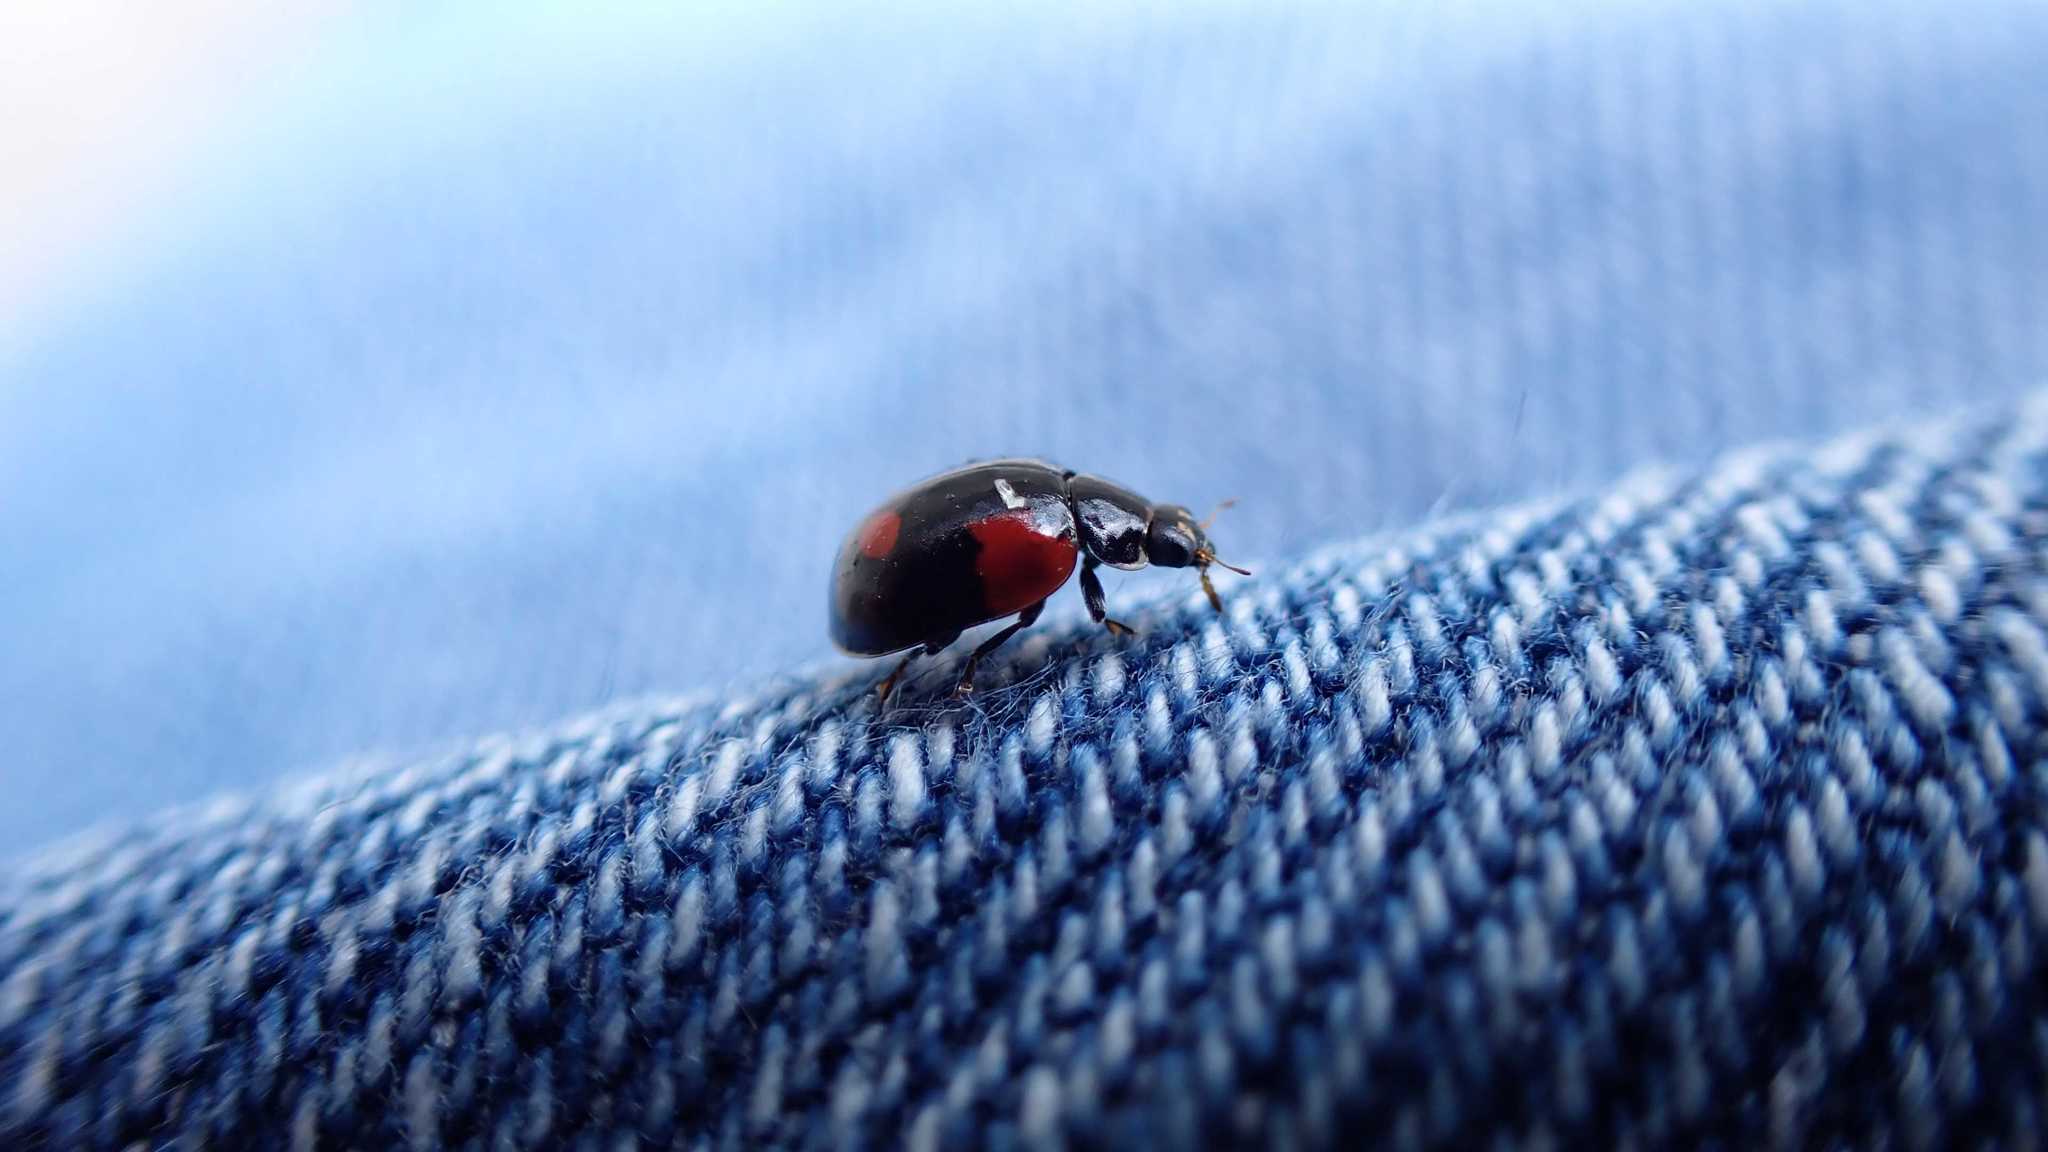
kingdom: Animalia
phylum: Arthropoda
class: Insecta
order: Coleoptera
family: Coccinellidae
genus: Adalia
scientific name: Adalia bipunctata
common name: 2-spot ladybird
